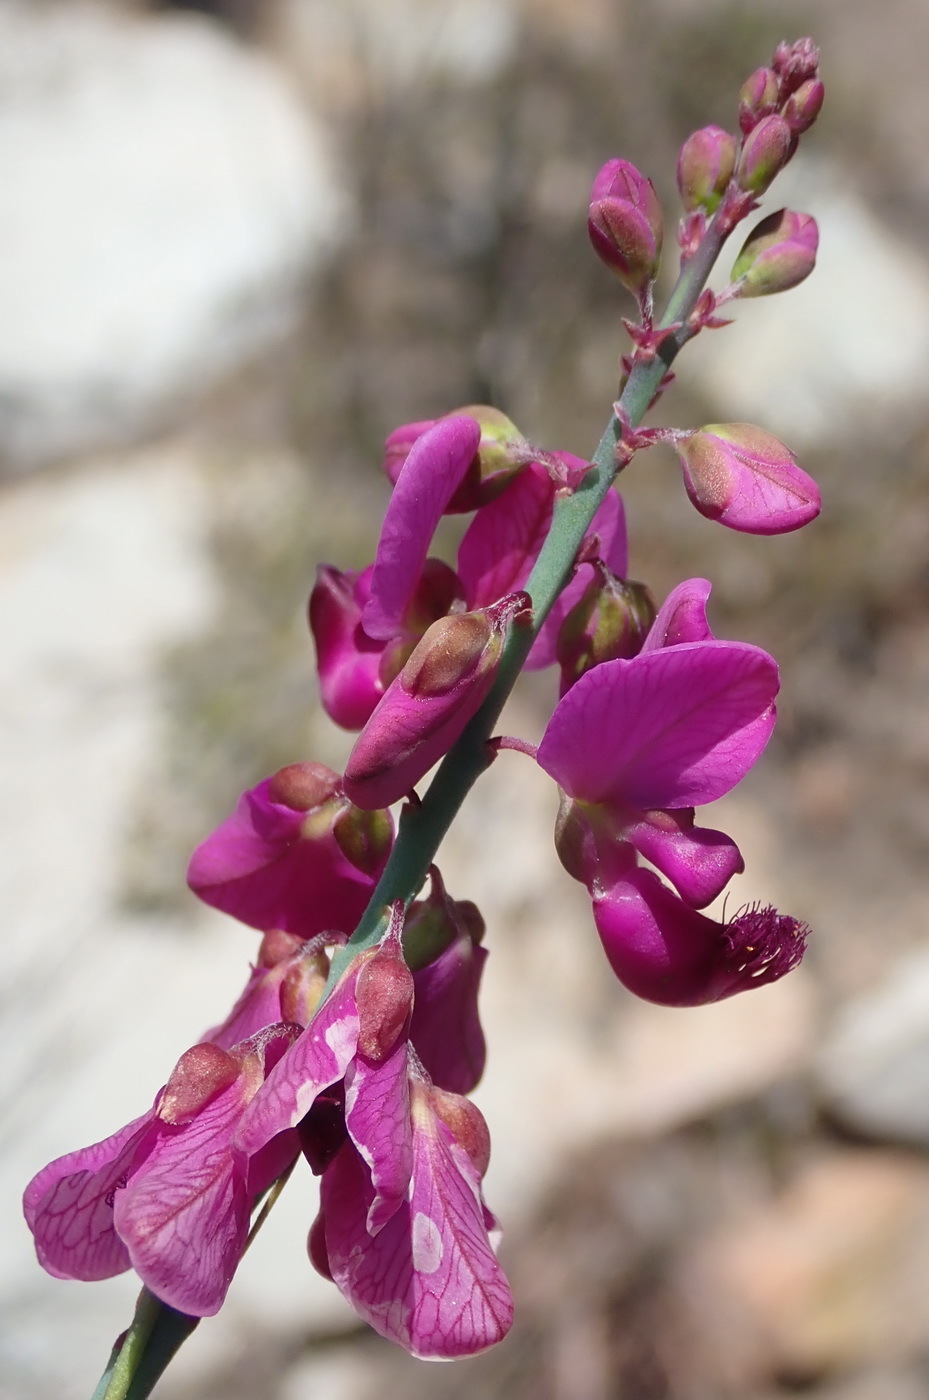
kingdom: Plantae
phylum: Tracheophyta
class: Magnoliopsida
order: Fabales
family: Polygalaceae
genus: Polygala
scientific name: Polygala virgata
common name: Milkwort
